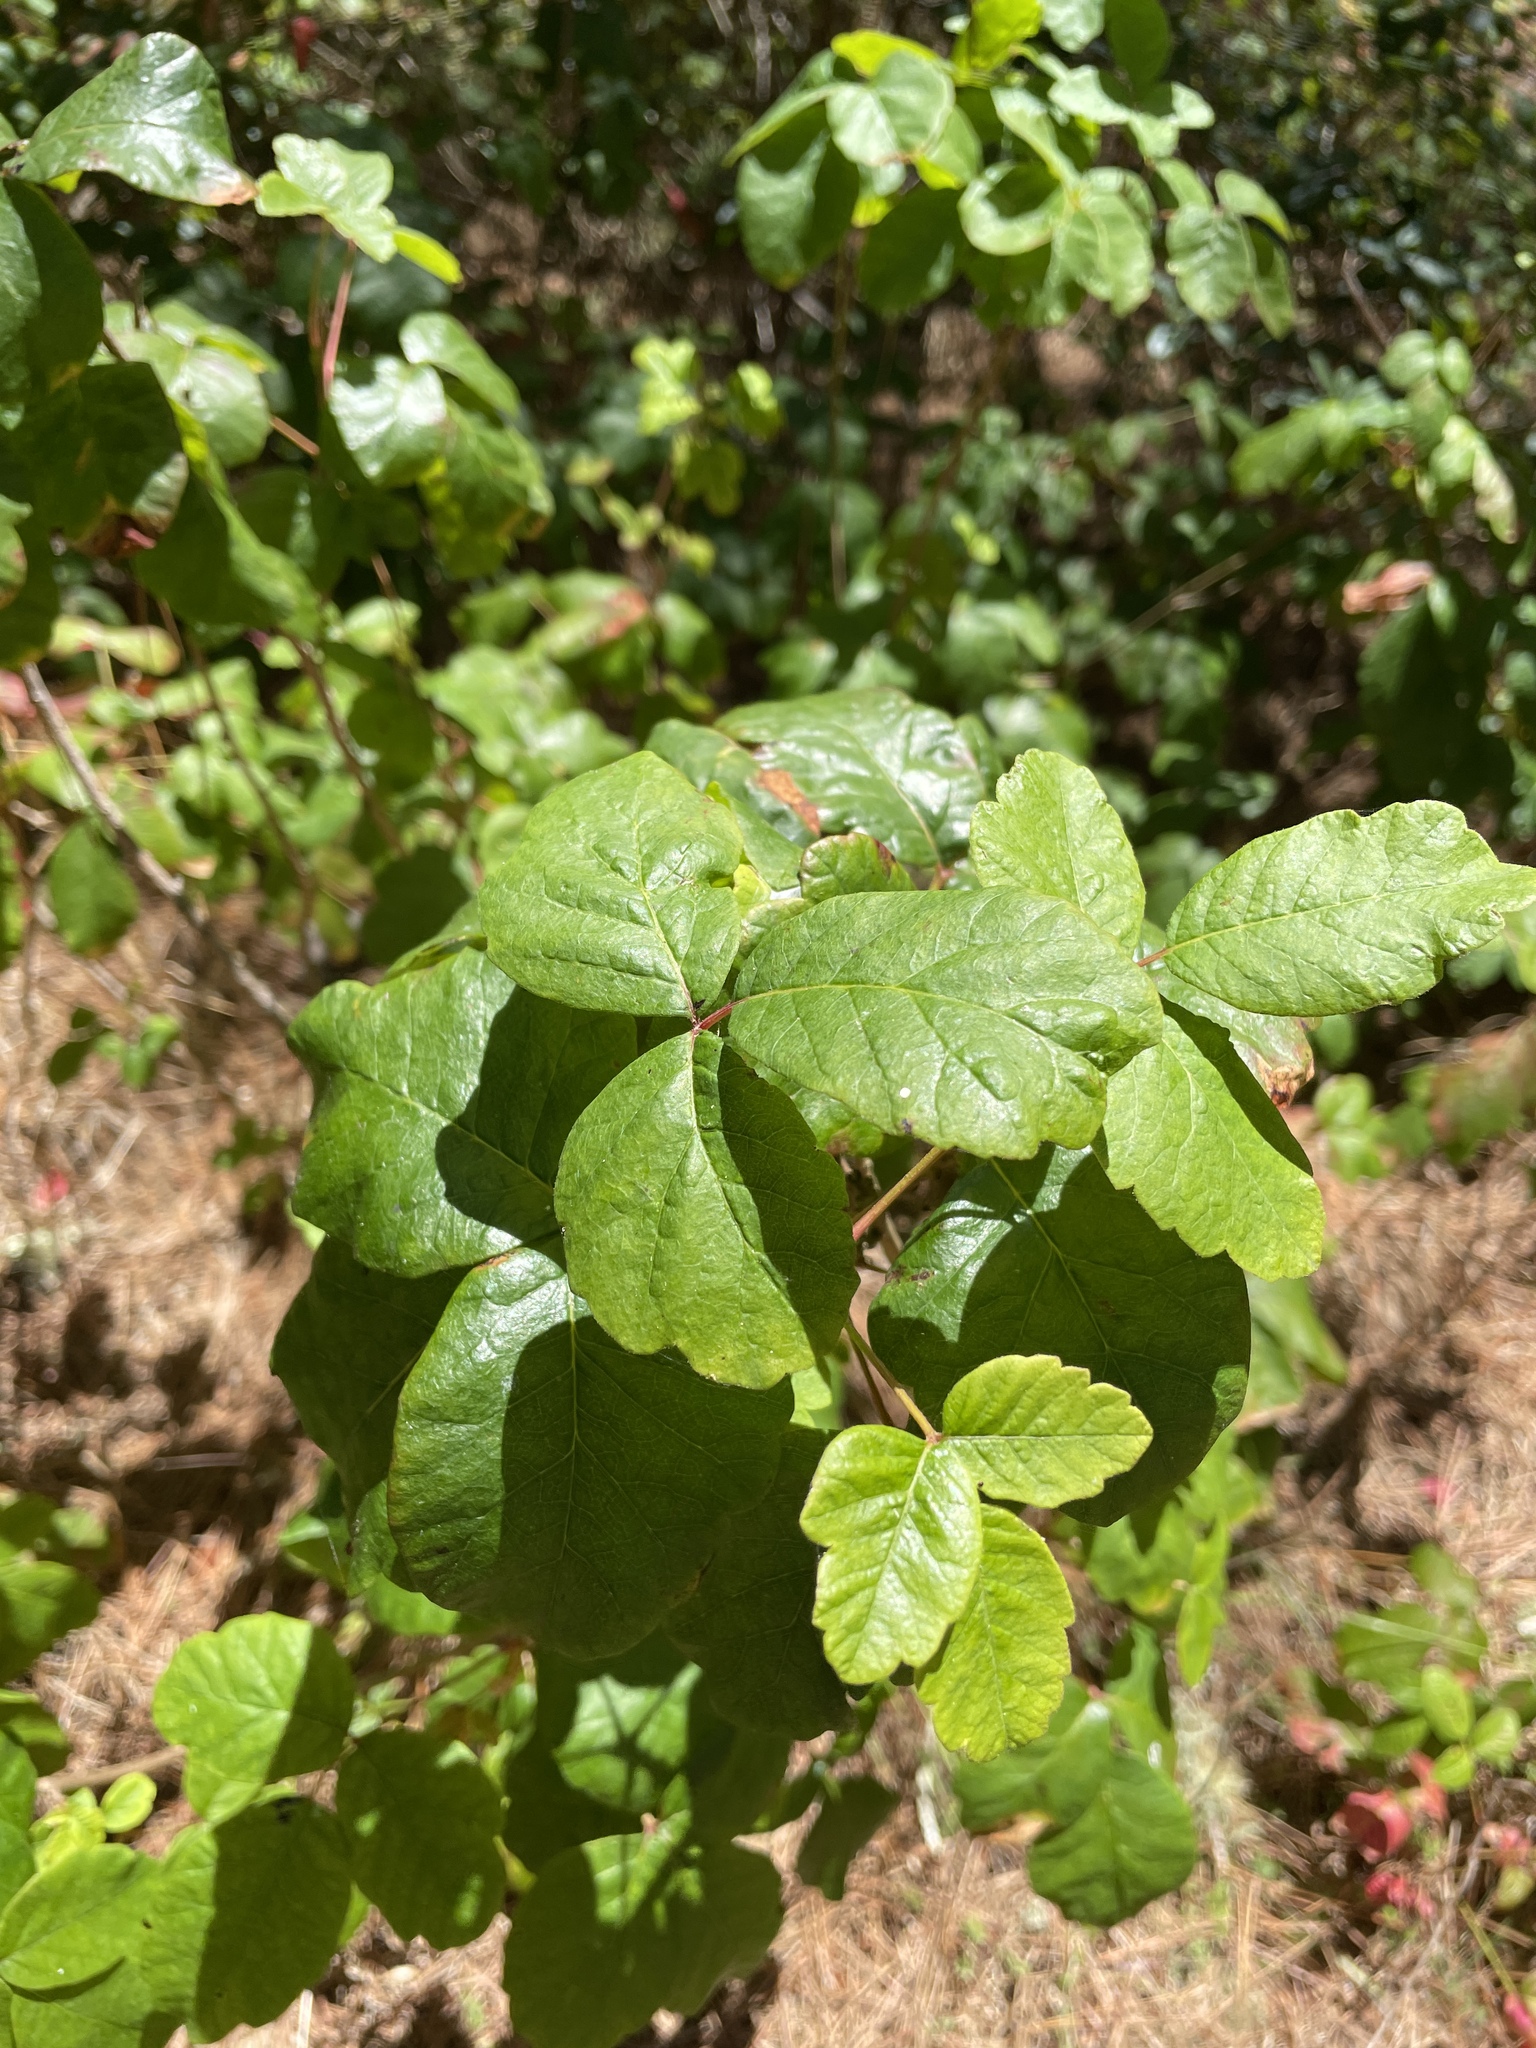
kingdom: Plantae
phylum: Tracheophyta
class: Magnoliopsida
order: Sapindales
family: Anacardiaceae
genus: Toxicodendron
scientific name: Toxicodendron diversilobum
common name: Pacific poison-oak
